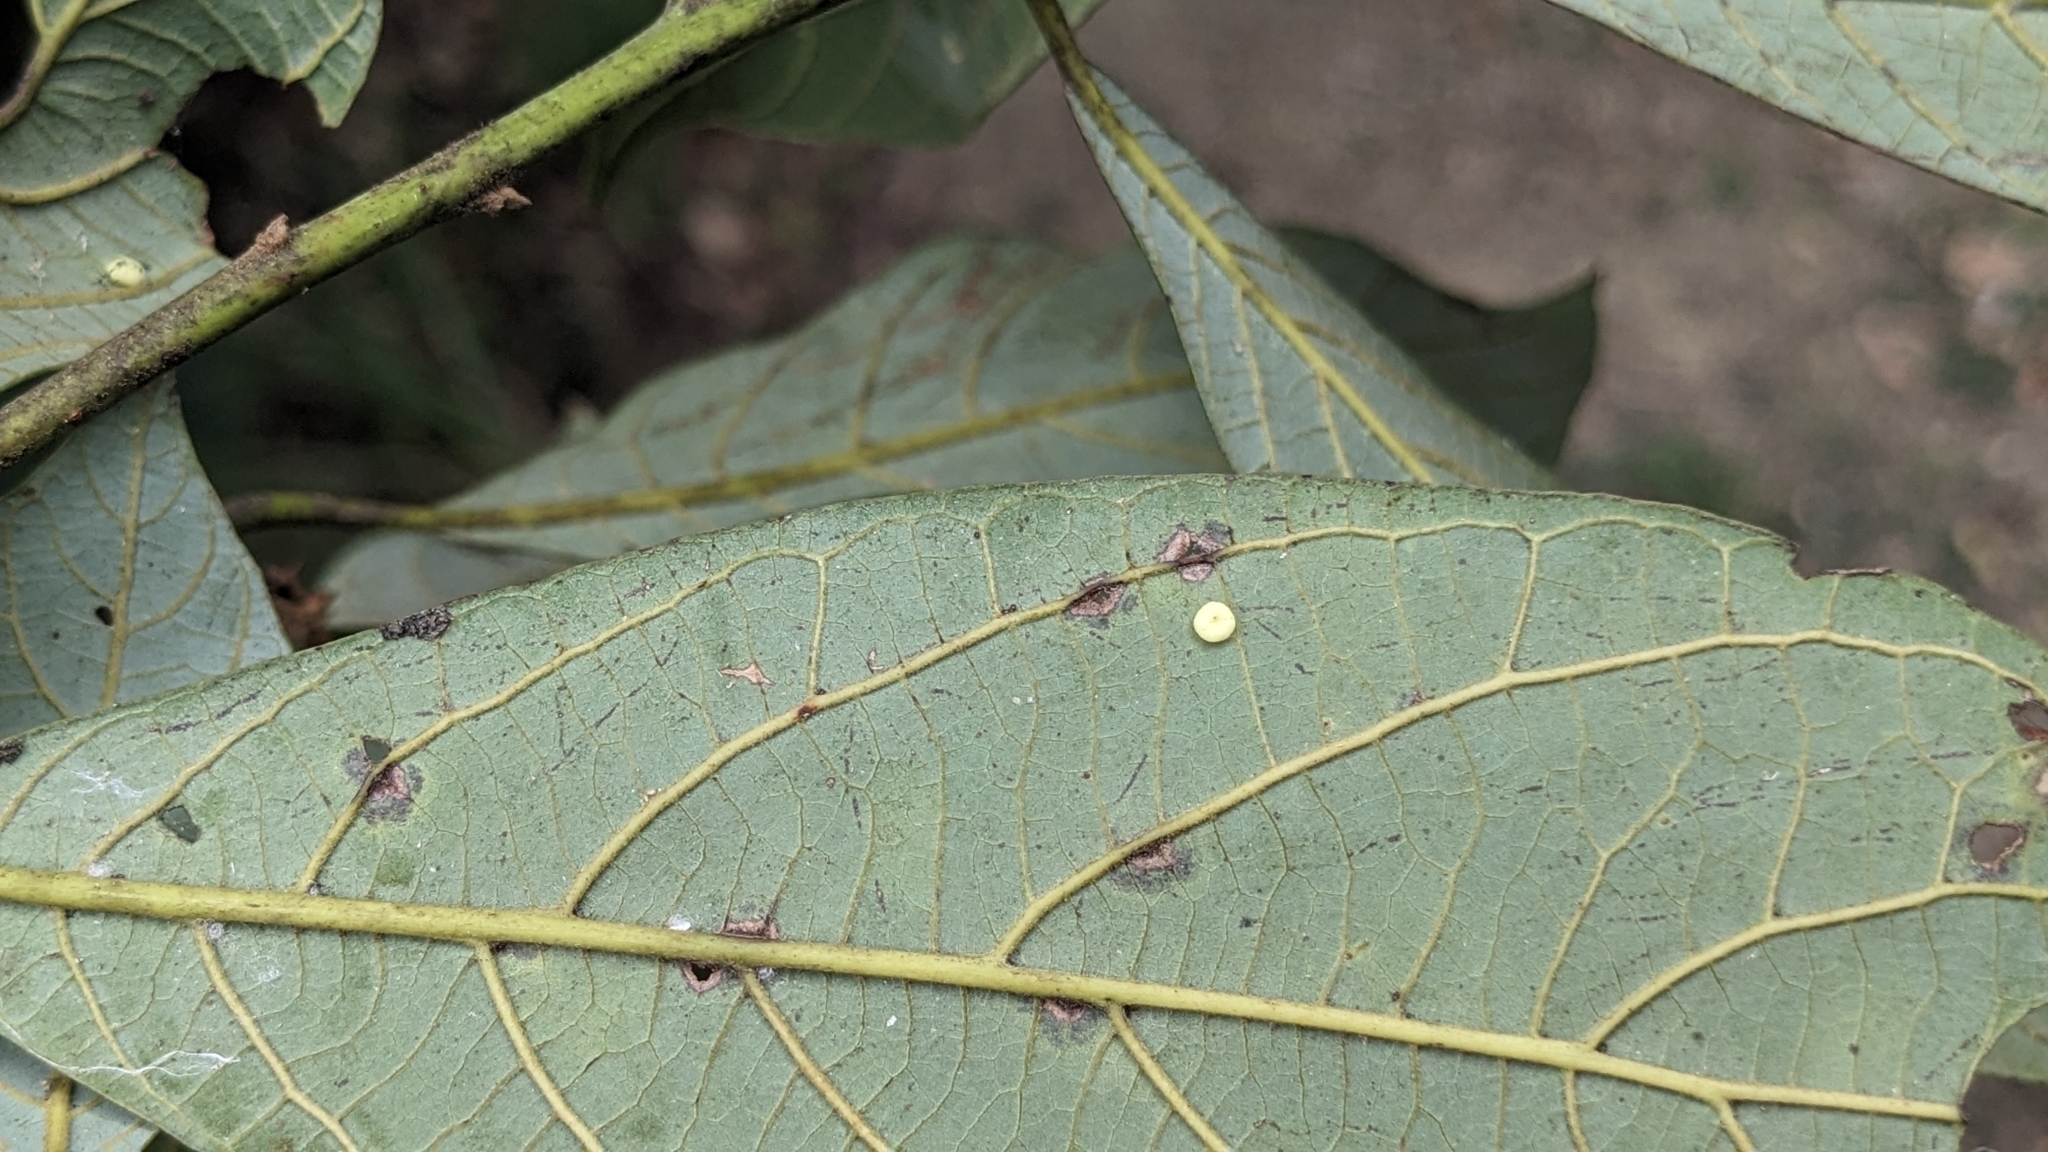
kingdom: Plantae
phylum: Tracheophyta
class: Magnoliopsida
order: Laurales
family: Lauraceae
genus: Phoebe
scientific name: Phoebe formosana
